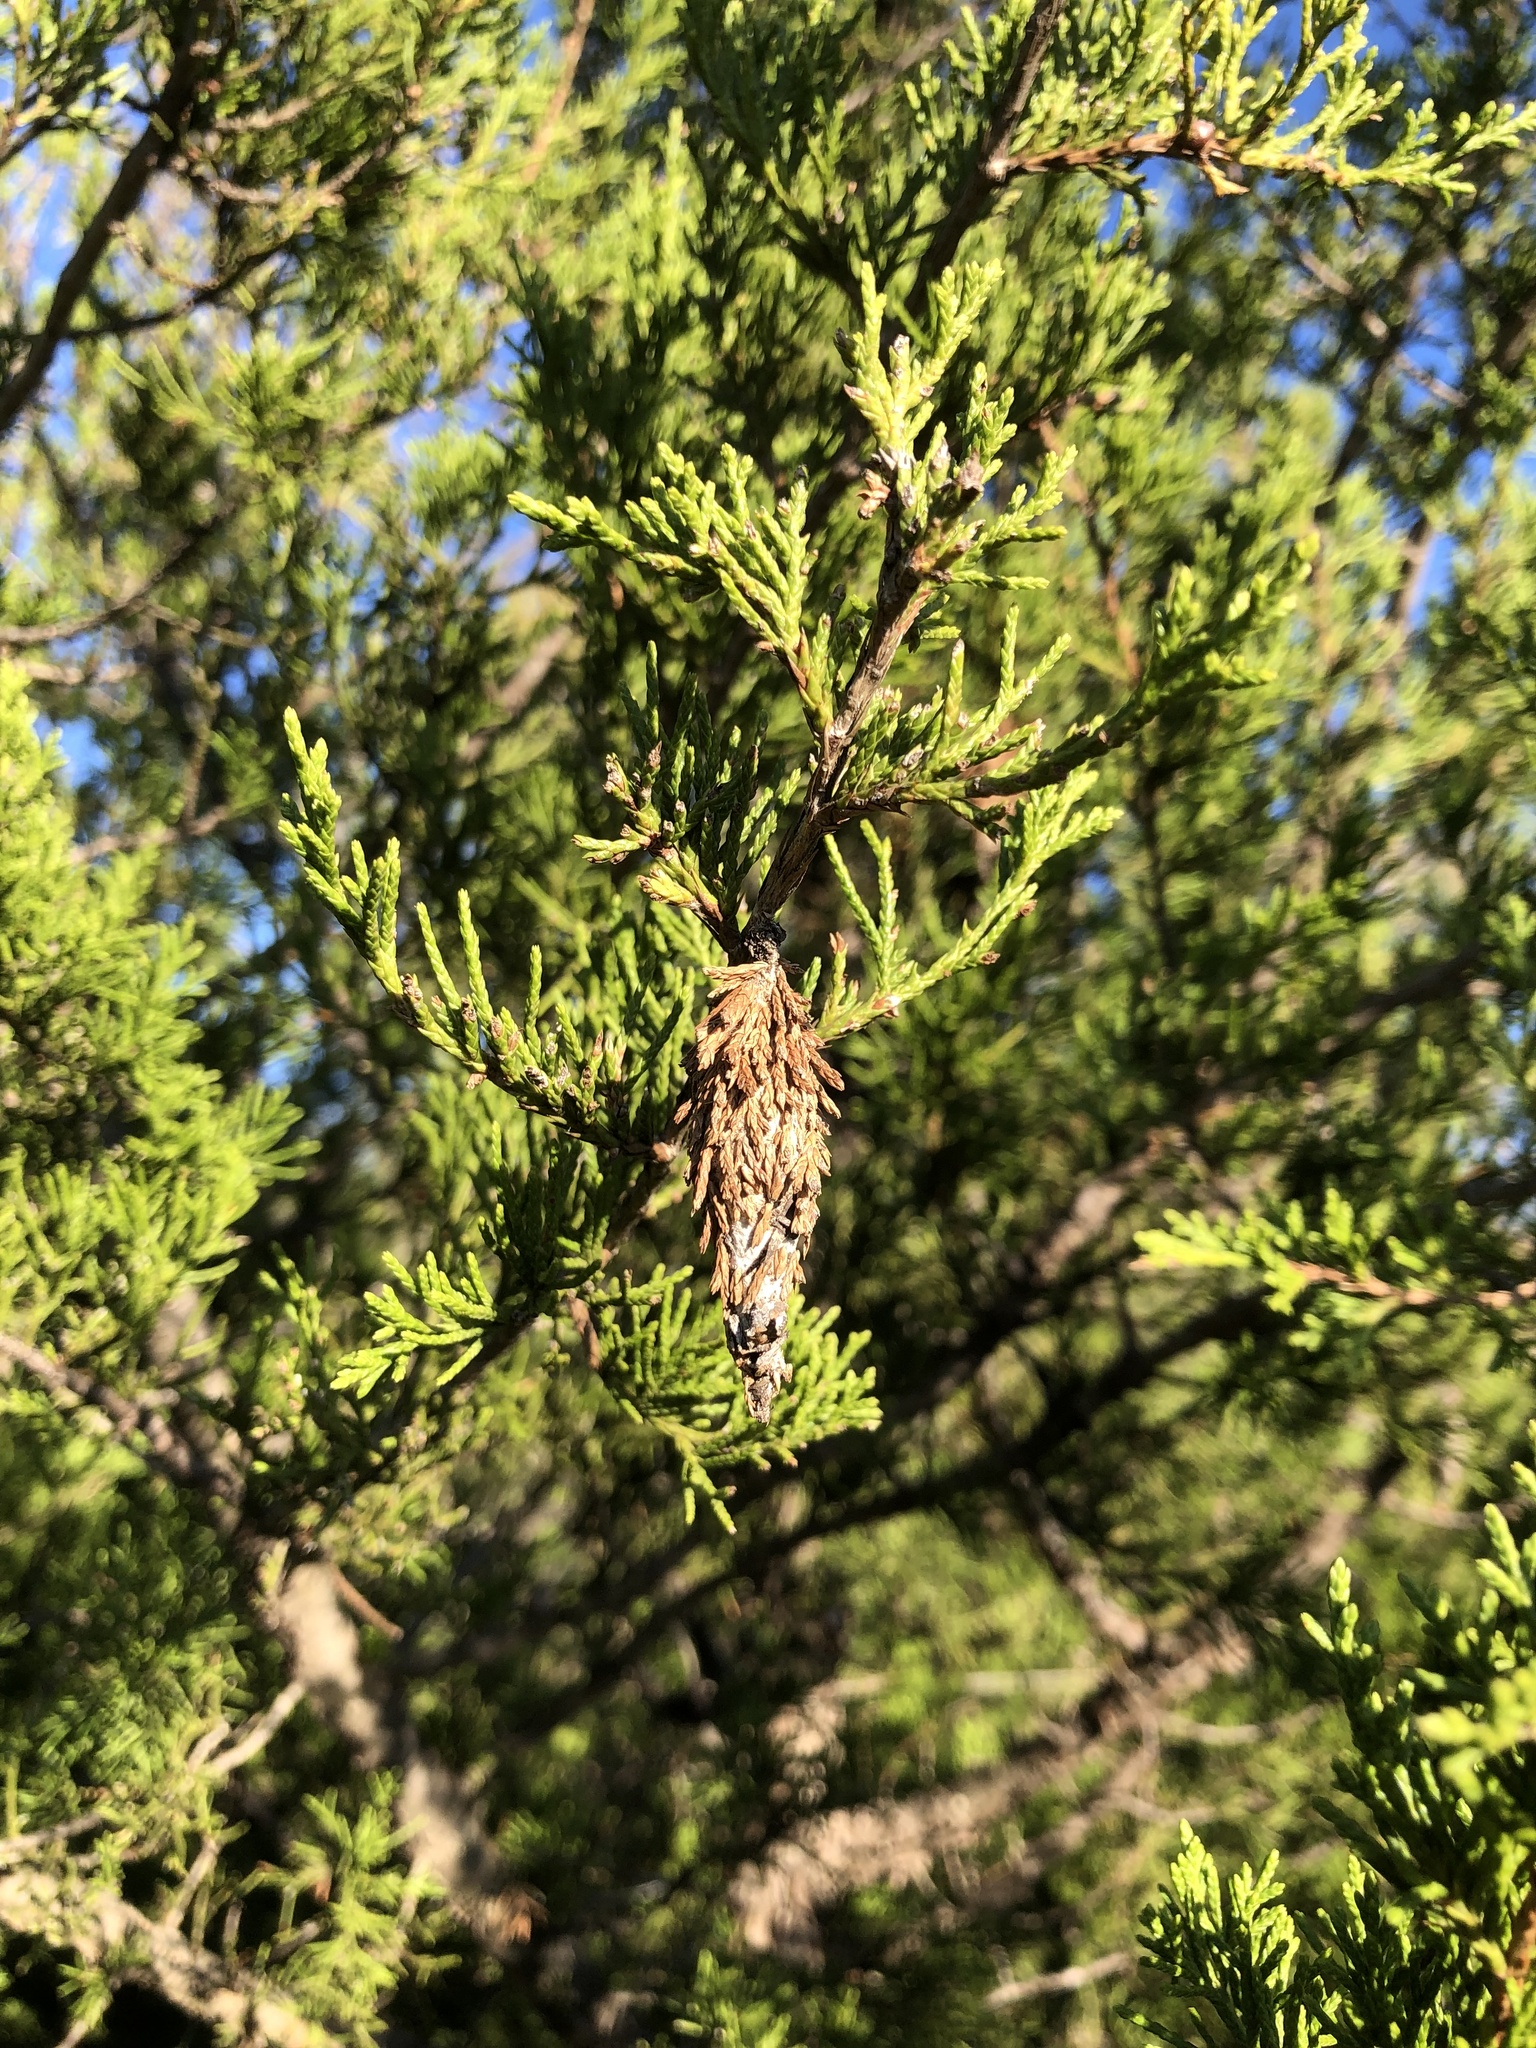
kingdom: Animalia
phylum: Arthropoda
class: Insecta
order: Lepidoptera
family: Psychidae
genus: Thyridopteryx
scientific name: Thyridopteryx ephemeraeformis
